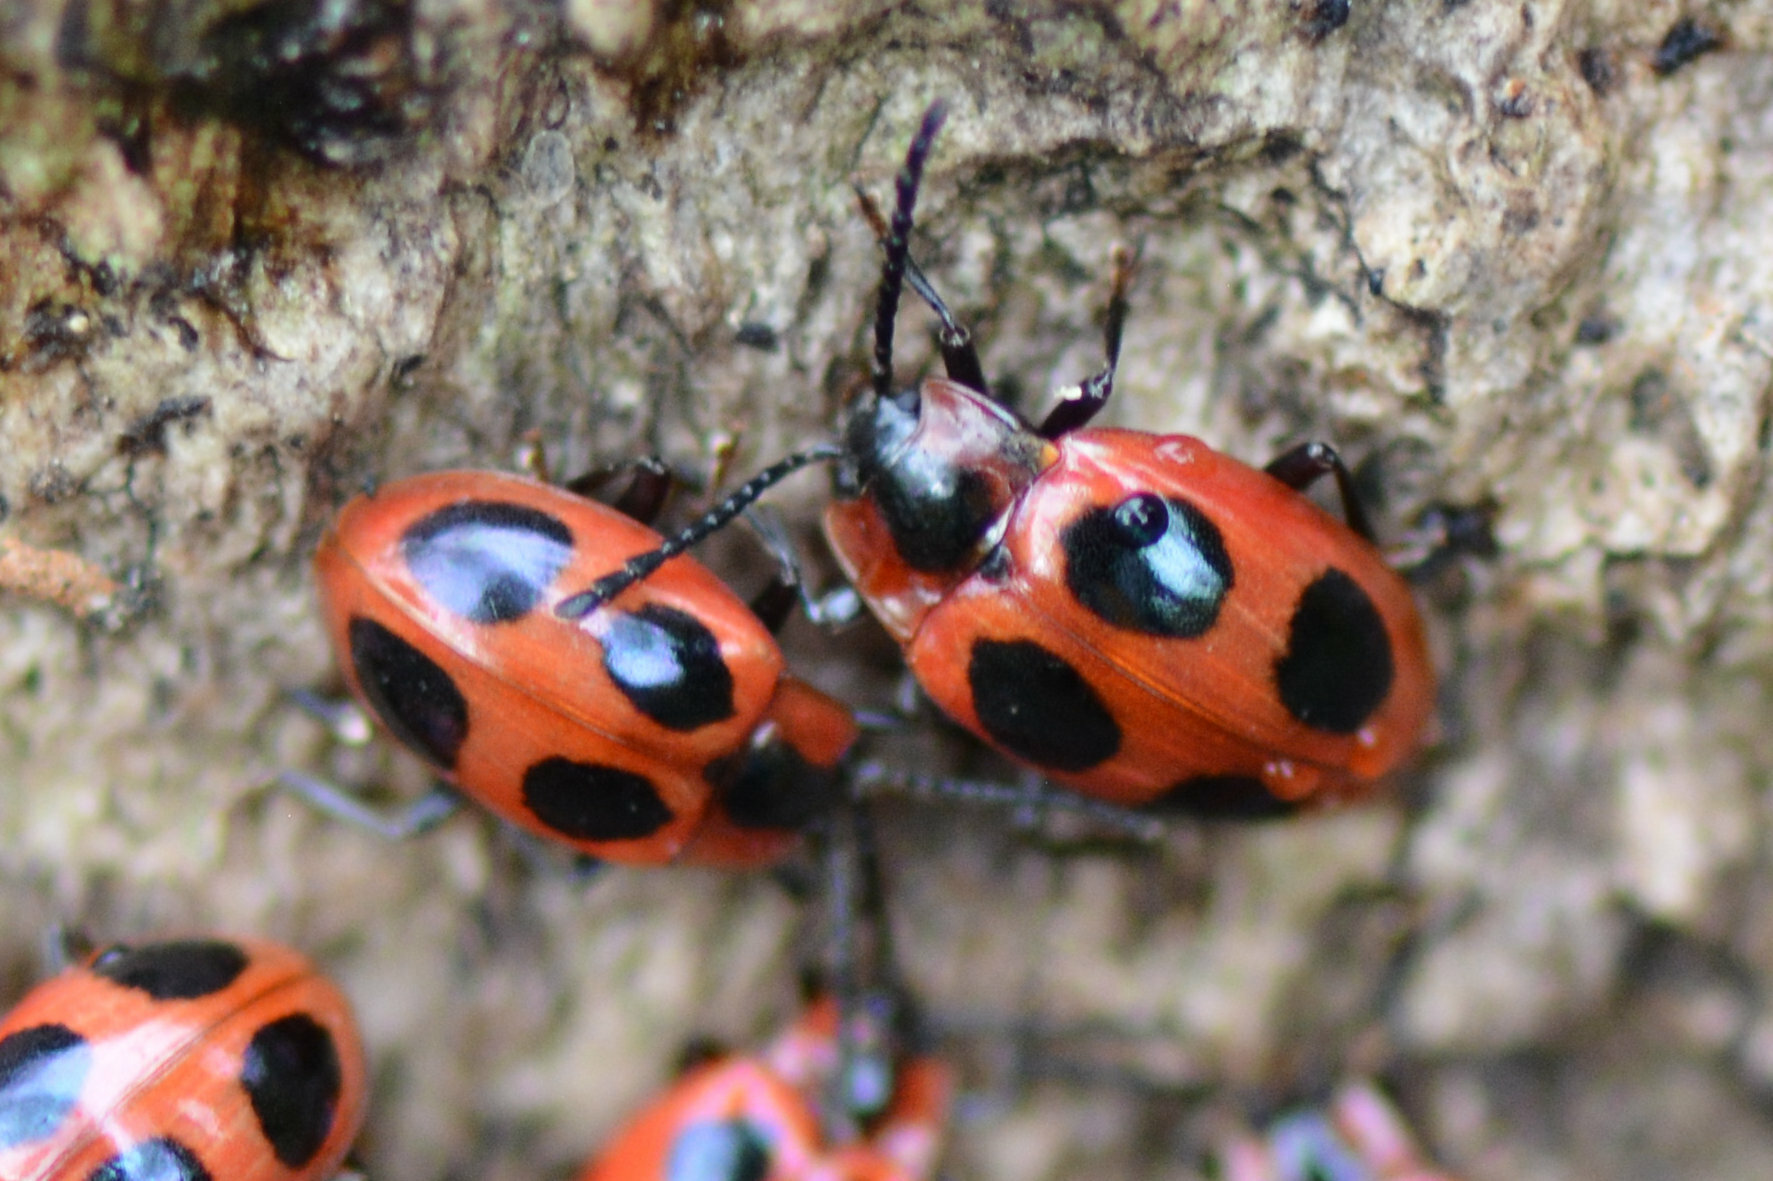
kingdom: Animalia
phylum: Arthropoda
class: Insecta
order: Coleoptera
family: Endomychidae
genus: Endomychus
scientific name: Endomychus coccineus
